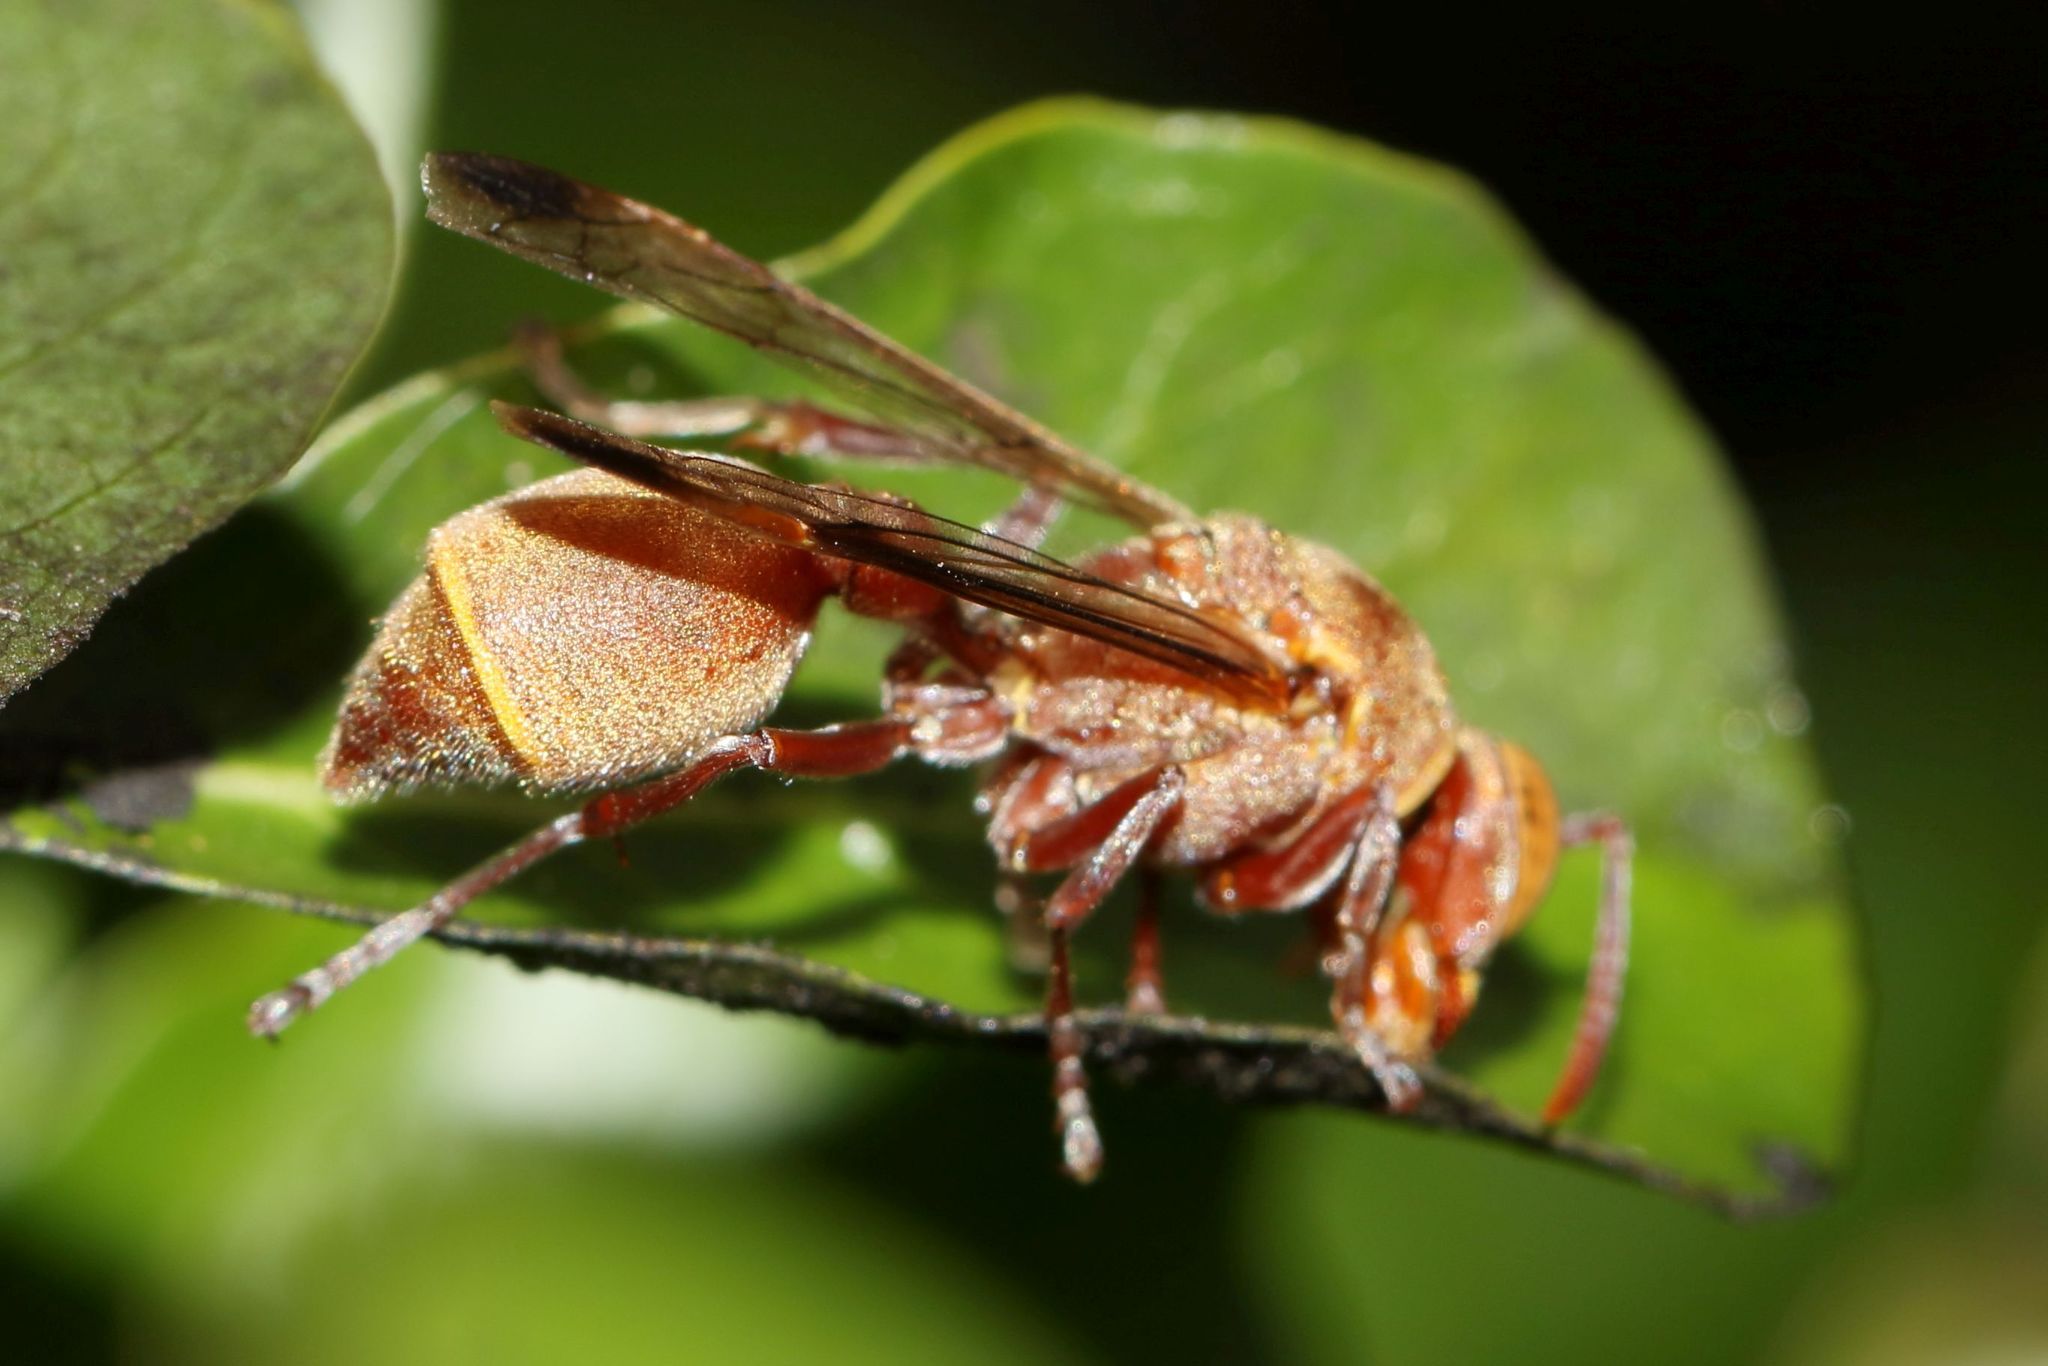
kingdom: Animalia
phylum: Arthropoda
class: Insecta
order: Hymenoptera
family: Vespidae
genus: Ropalidia
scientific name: Ropalidia distigma
